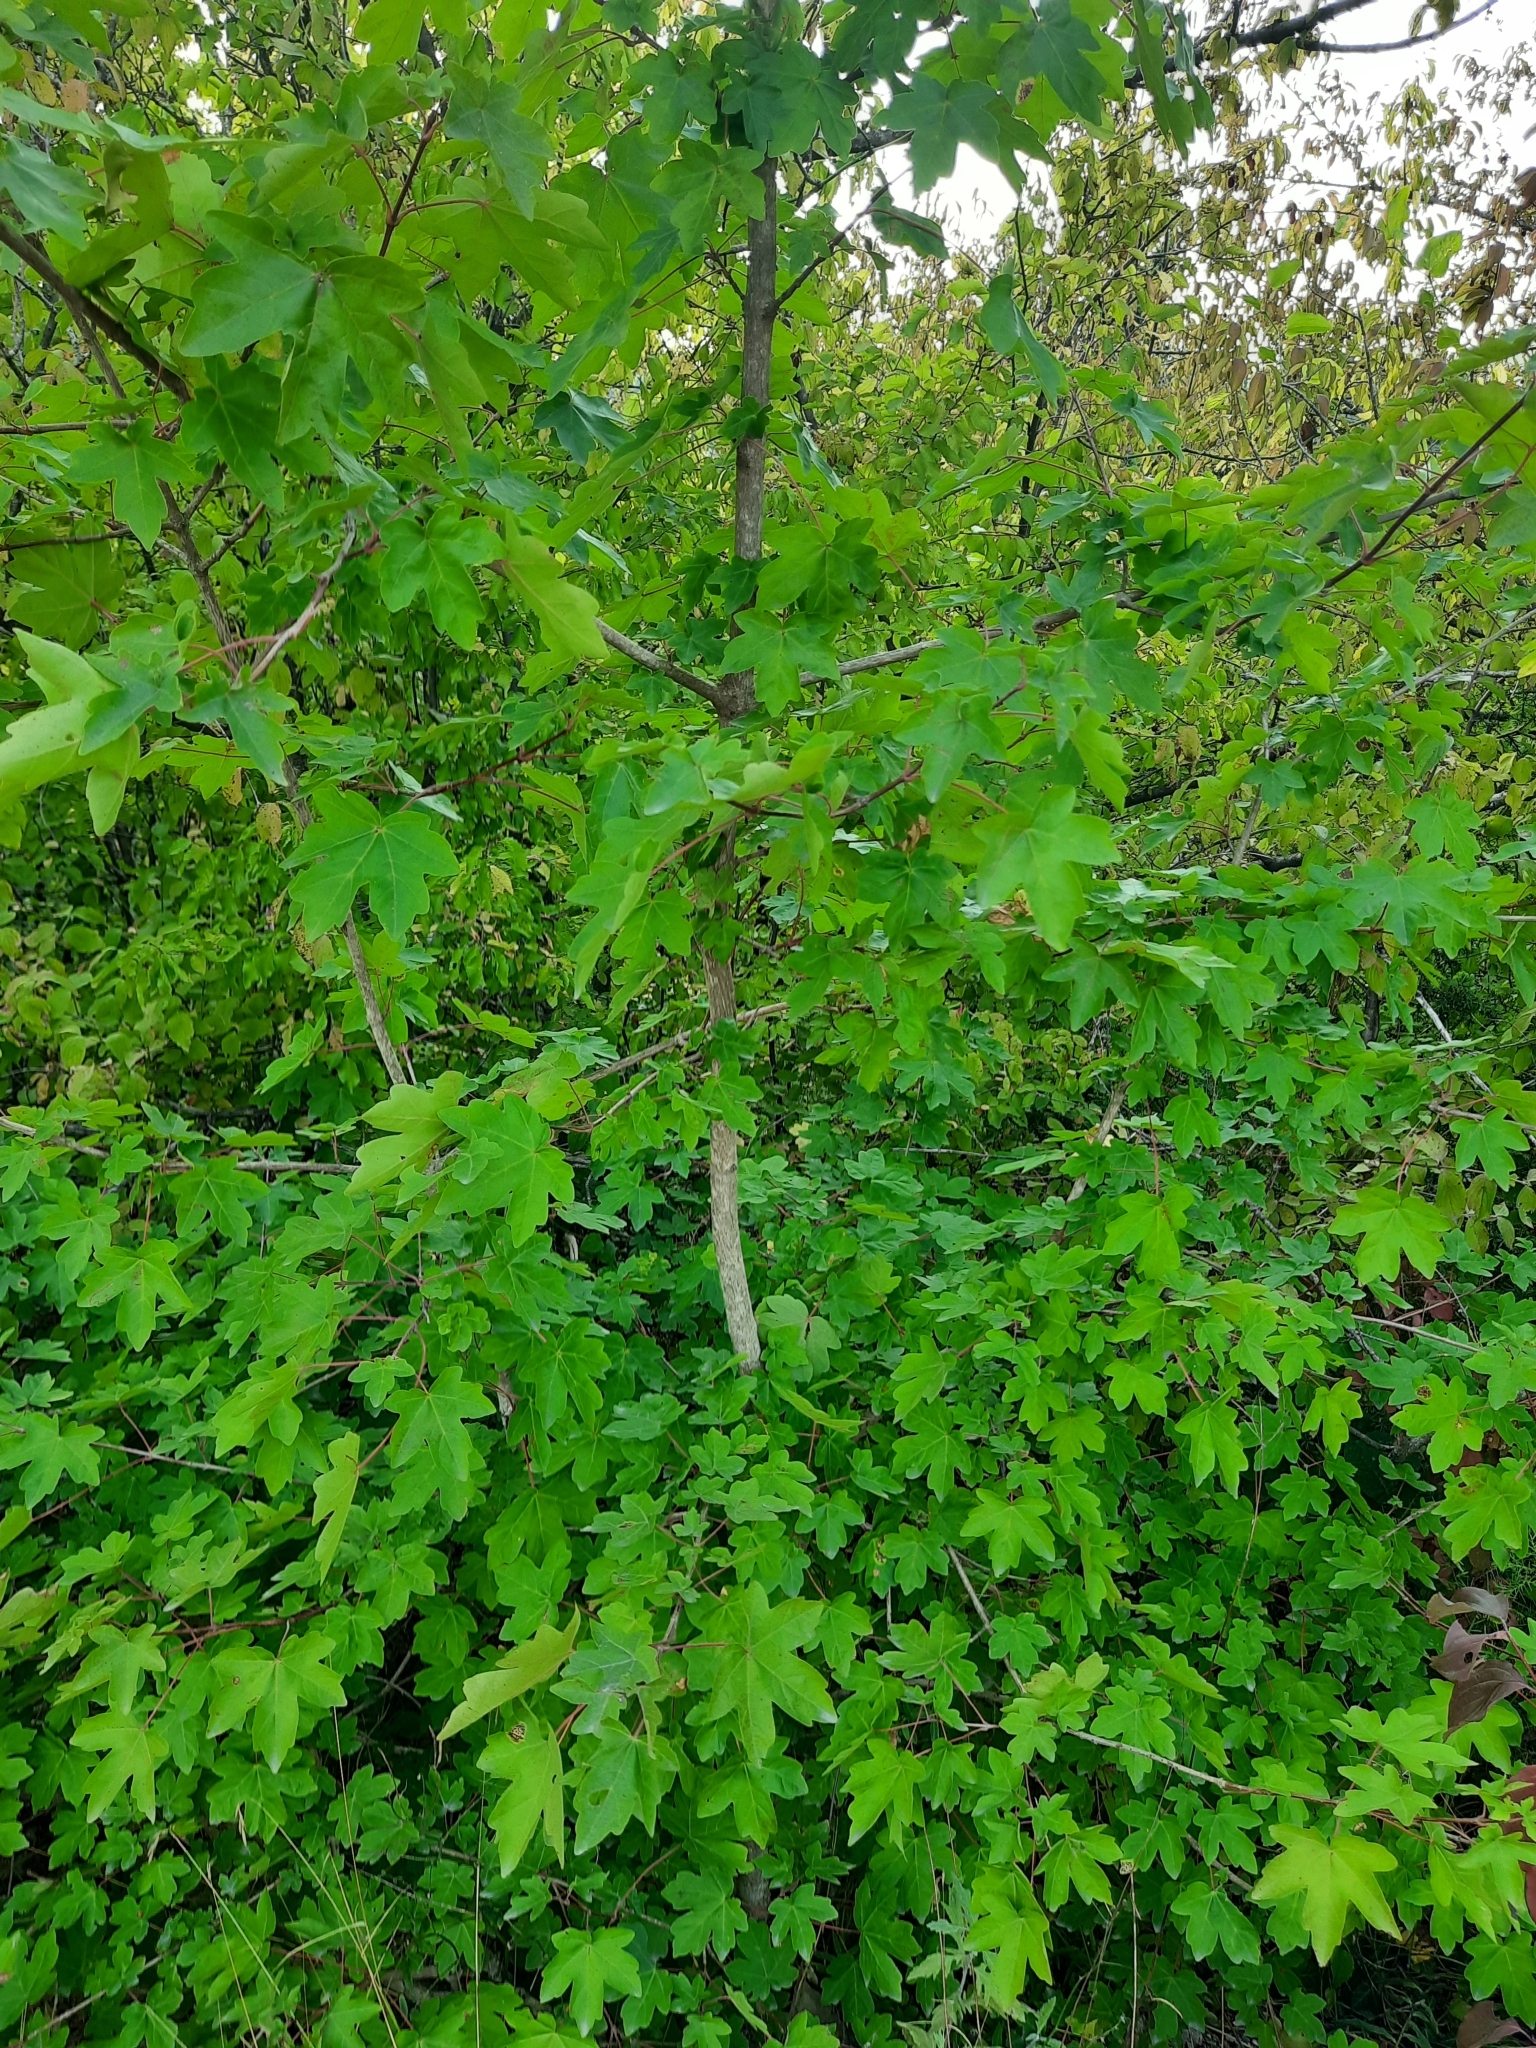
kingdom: Plantae
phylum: Tracheophyta
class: Magnoliopsida
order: Sapindales
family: Sapindaceae
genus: Acer
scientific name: Acer campestre
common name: Field maple
